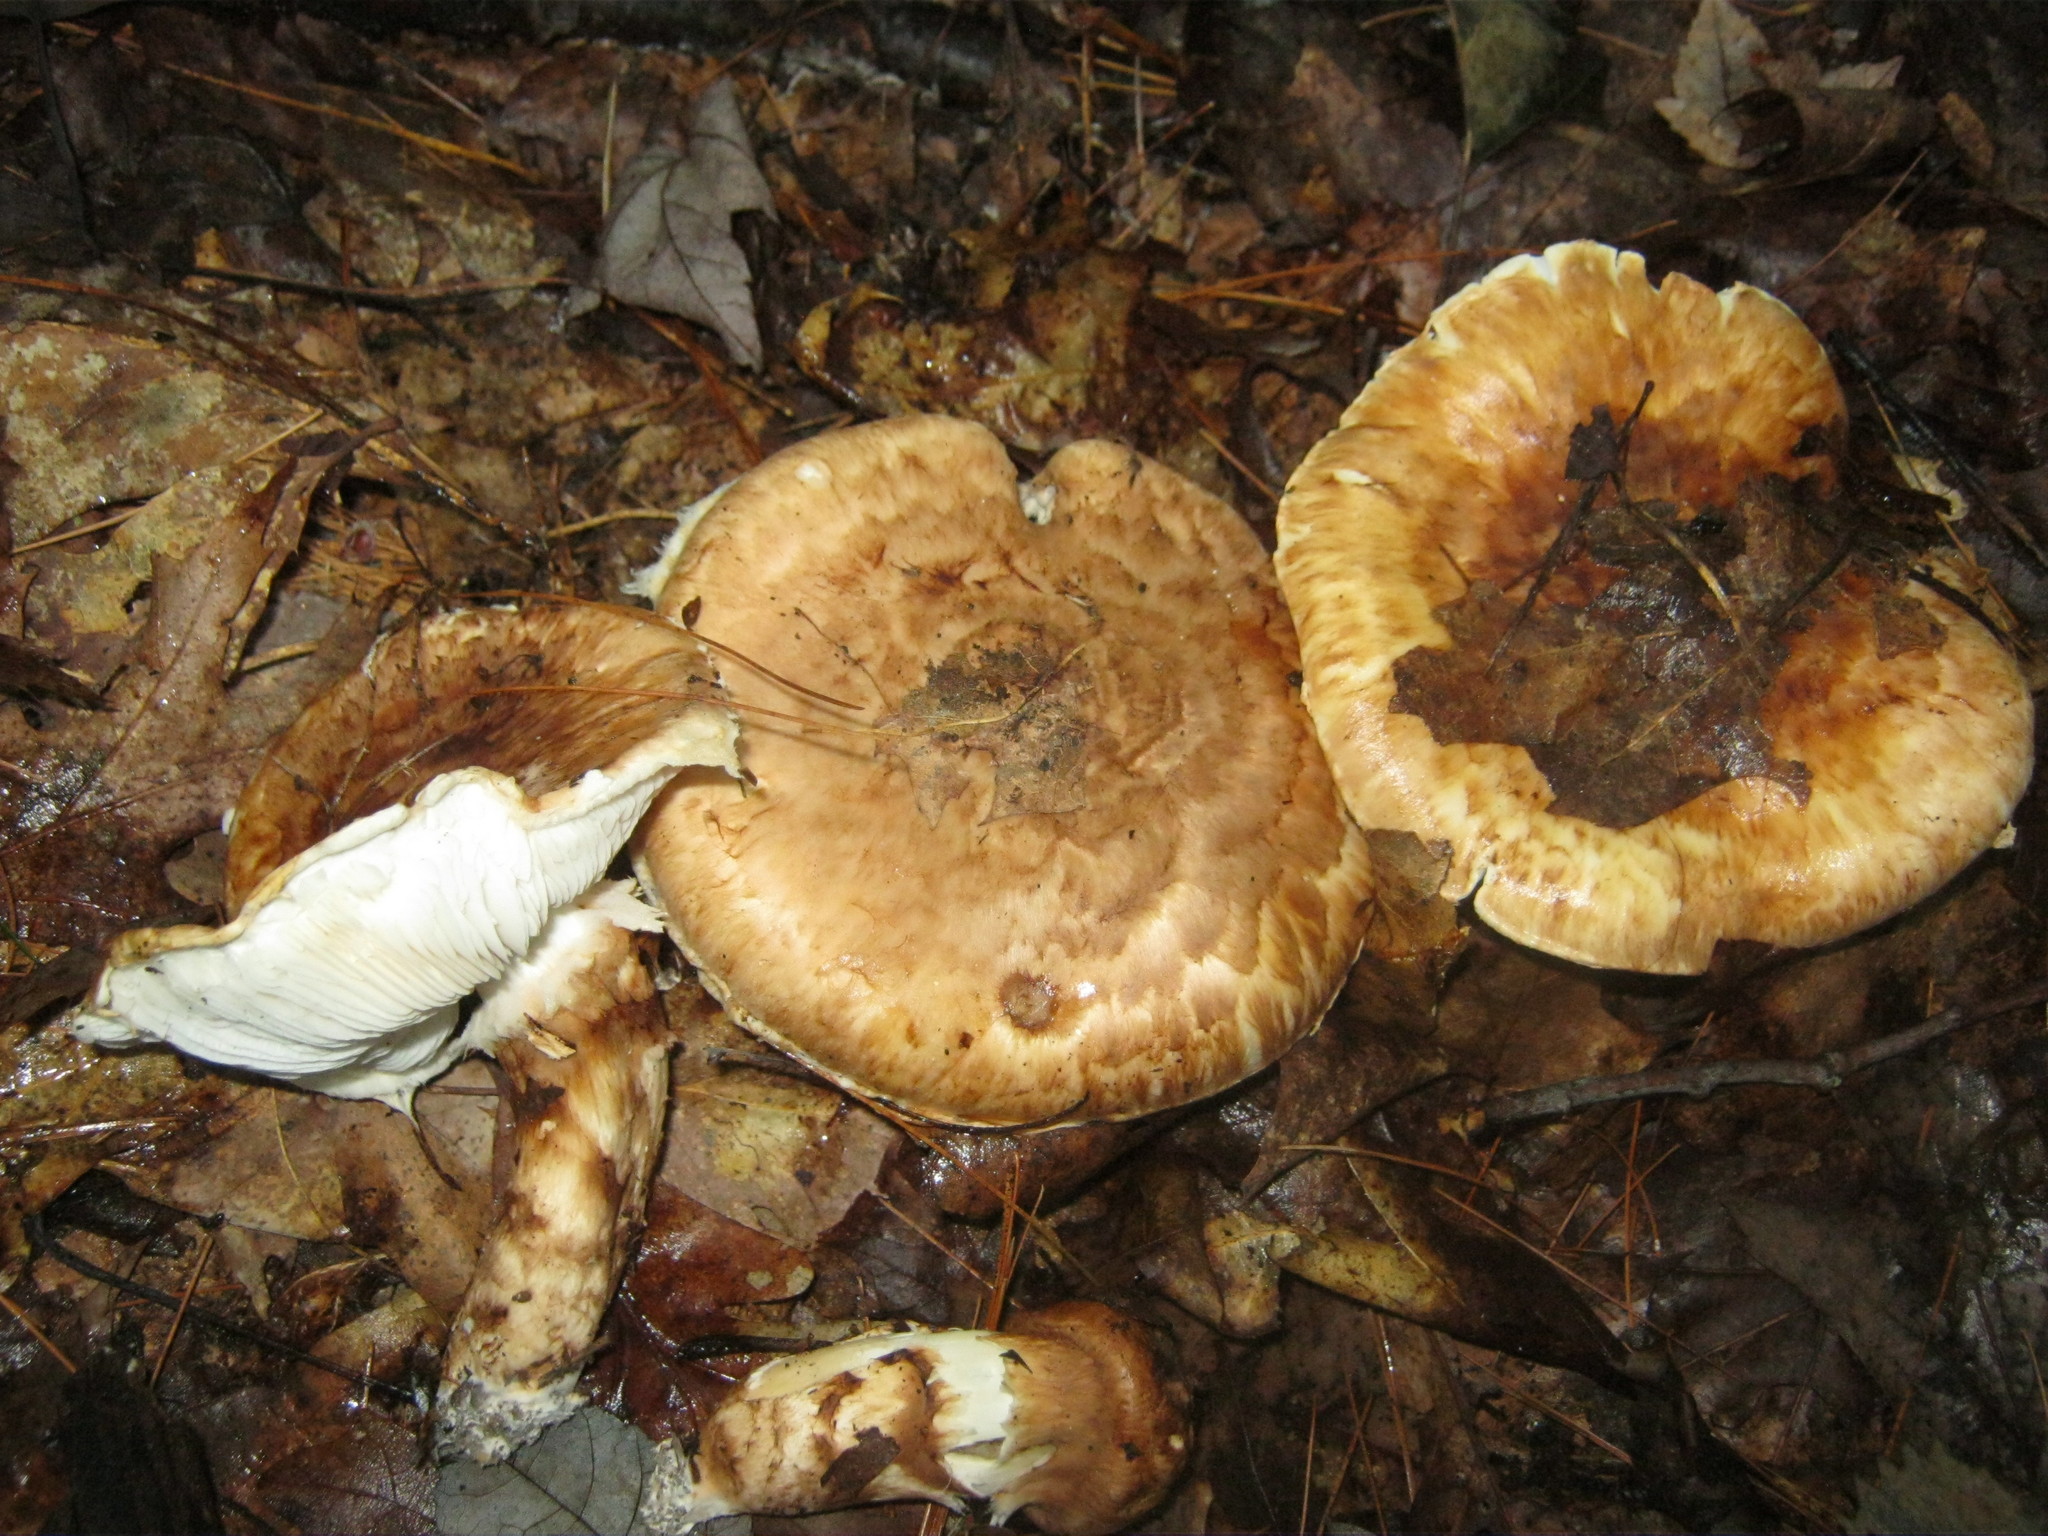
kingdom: Fungi
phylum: Basidiomycota
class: Agaricomycetes
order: Agaricales
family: Tricholomataceae
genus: Tricholoma
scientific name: Tricholoma caligatum
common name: True booted knight
